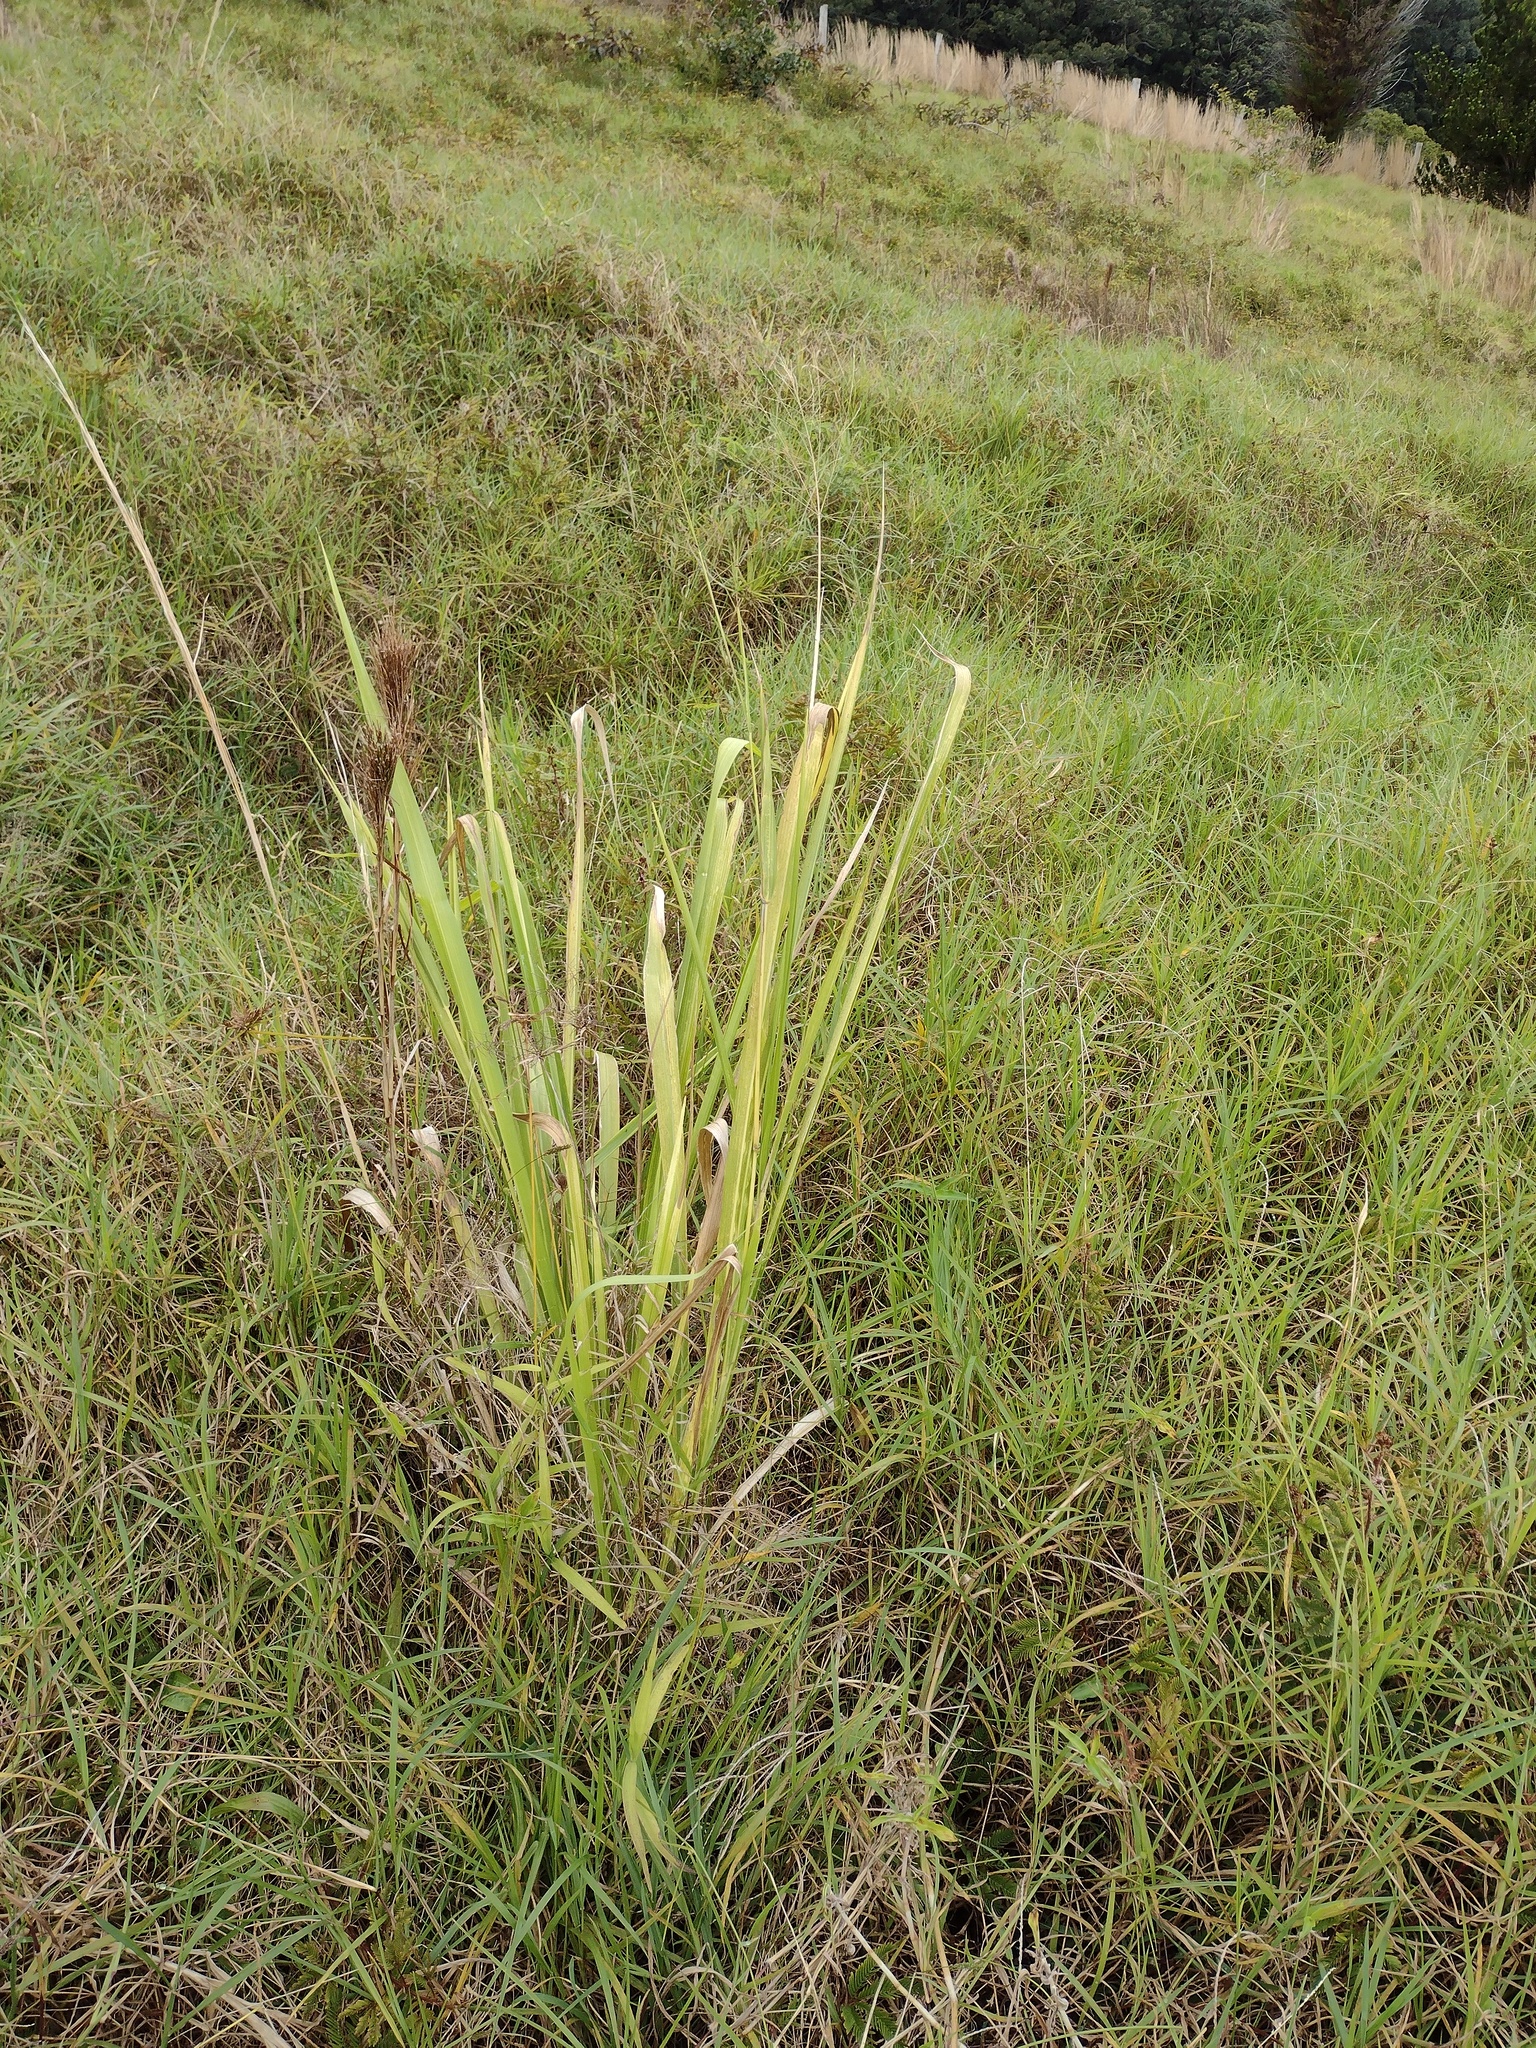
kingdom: Plantae
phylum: Tracheophyta
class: Liliopsida
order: Poales
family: Poaceae
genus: Megathyrsus
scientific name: Megathyrsus maximus
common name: Guineagrass
